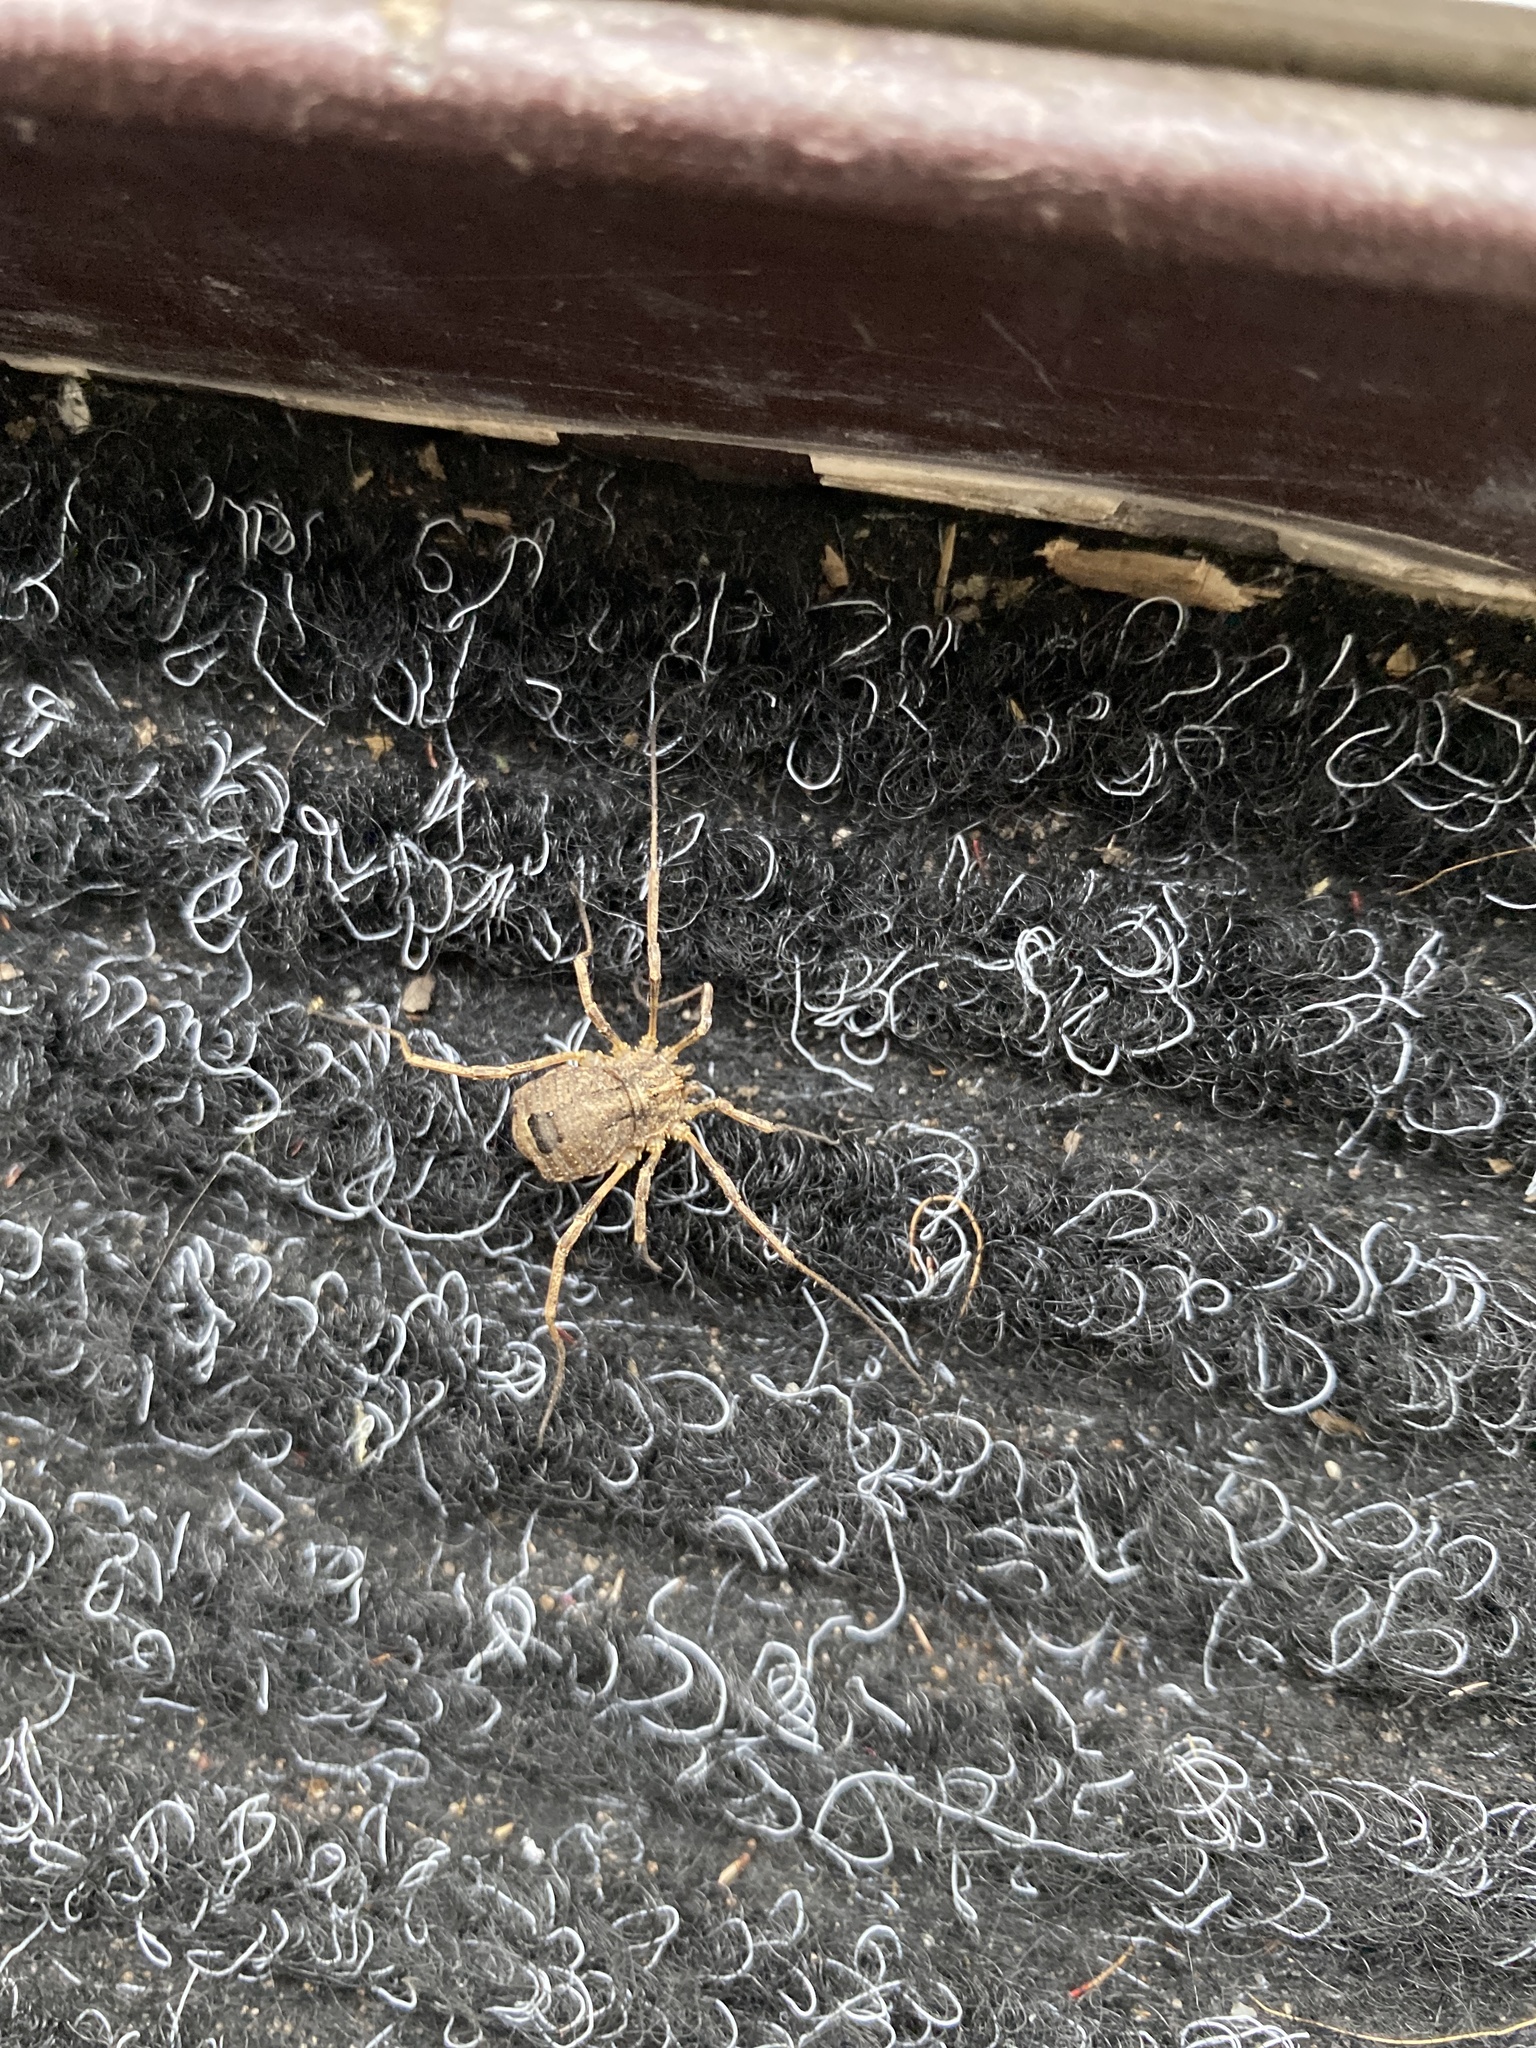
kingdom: Animalia
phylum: Arthropoda
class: Arachnida
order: Opiliones
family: Phalangiidae
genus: Odiellus
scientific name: Odiellus spinosus
